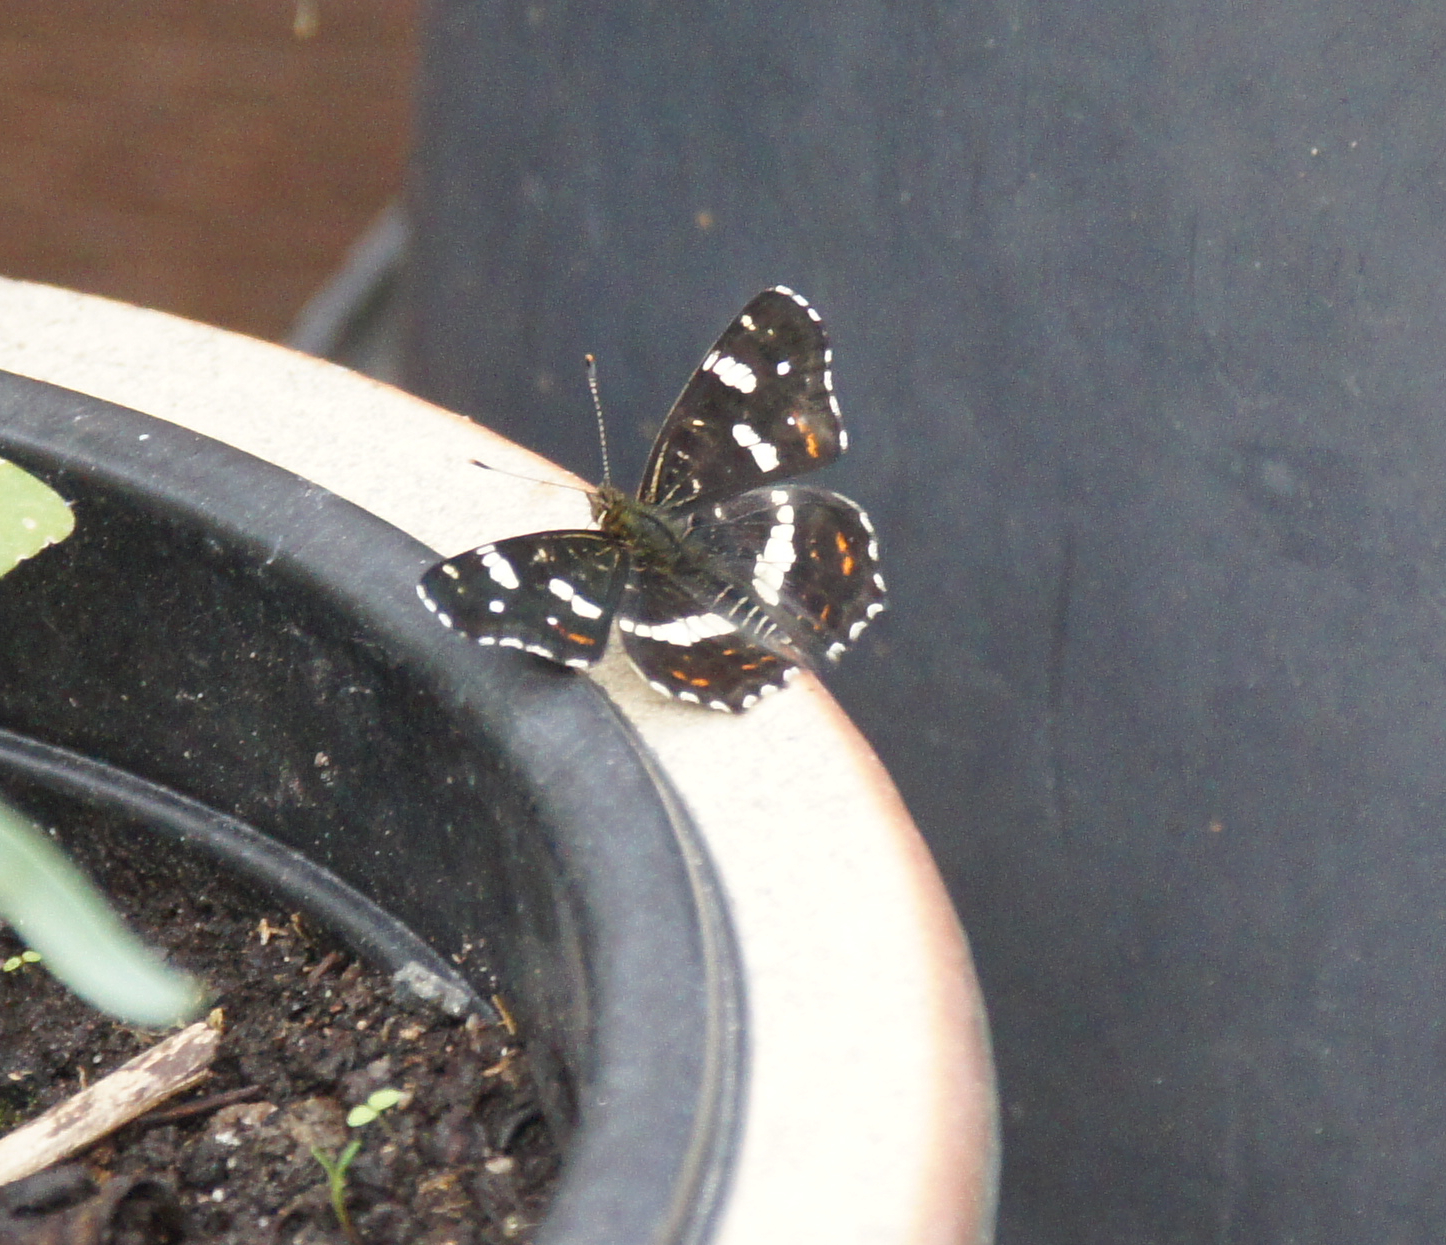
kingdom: Animalia
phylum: Arthropoda
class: Insecta
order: Lepidoptera
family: Nymphalidae
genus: Araschnia
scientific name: Araschnia levana
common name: Map butterfly
